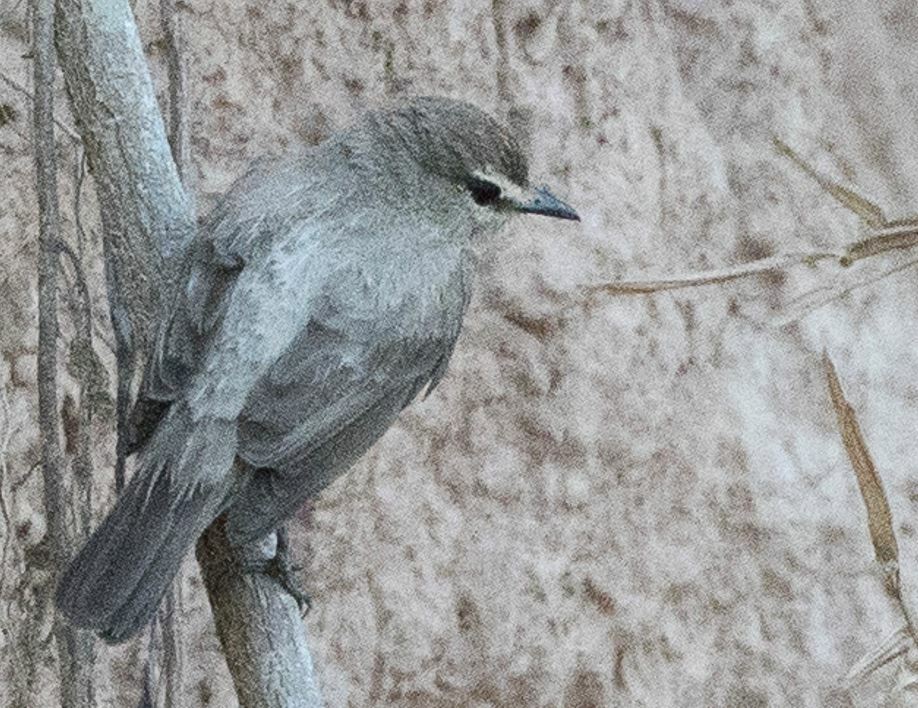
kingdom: Animalia
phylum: Chordata
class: Aves
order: Passeriformes
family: Tyrannidae
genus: Ochthornis
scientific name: Ochthornis littoralis
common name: Drab water tyrant
